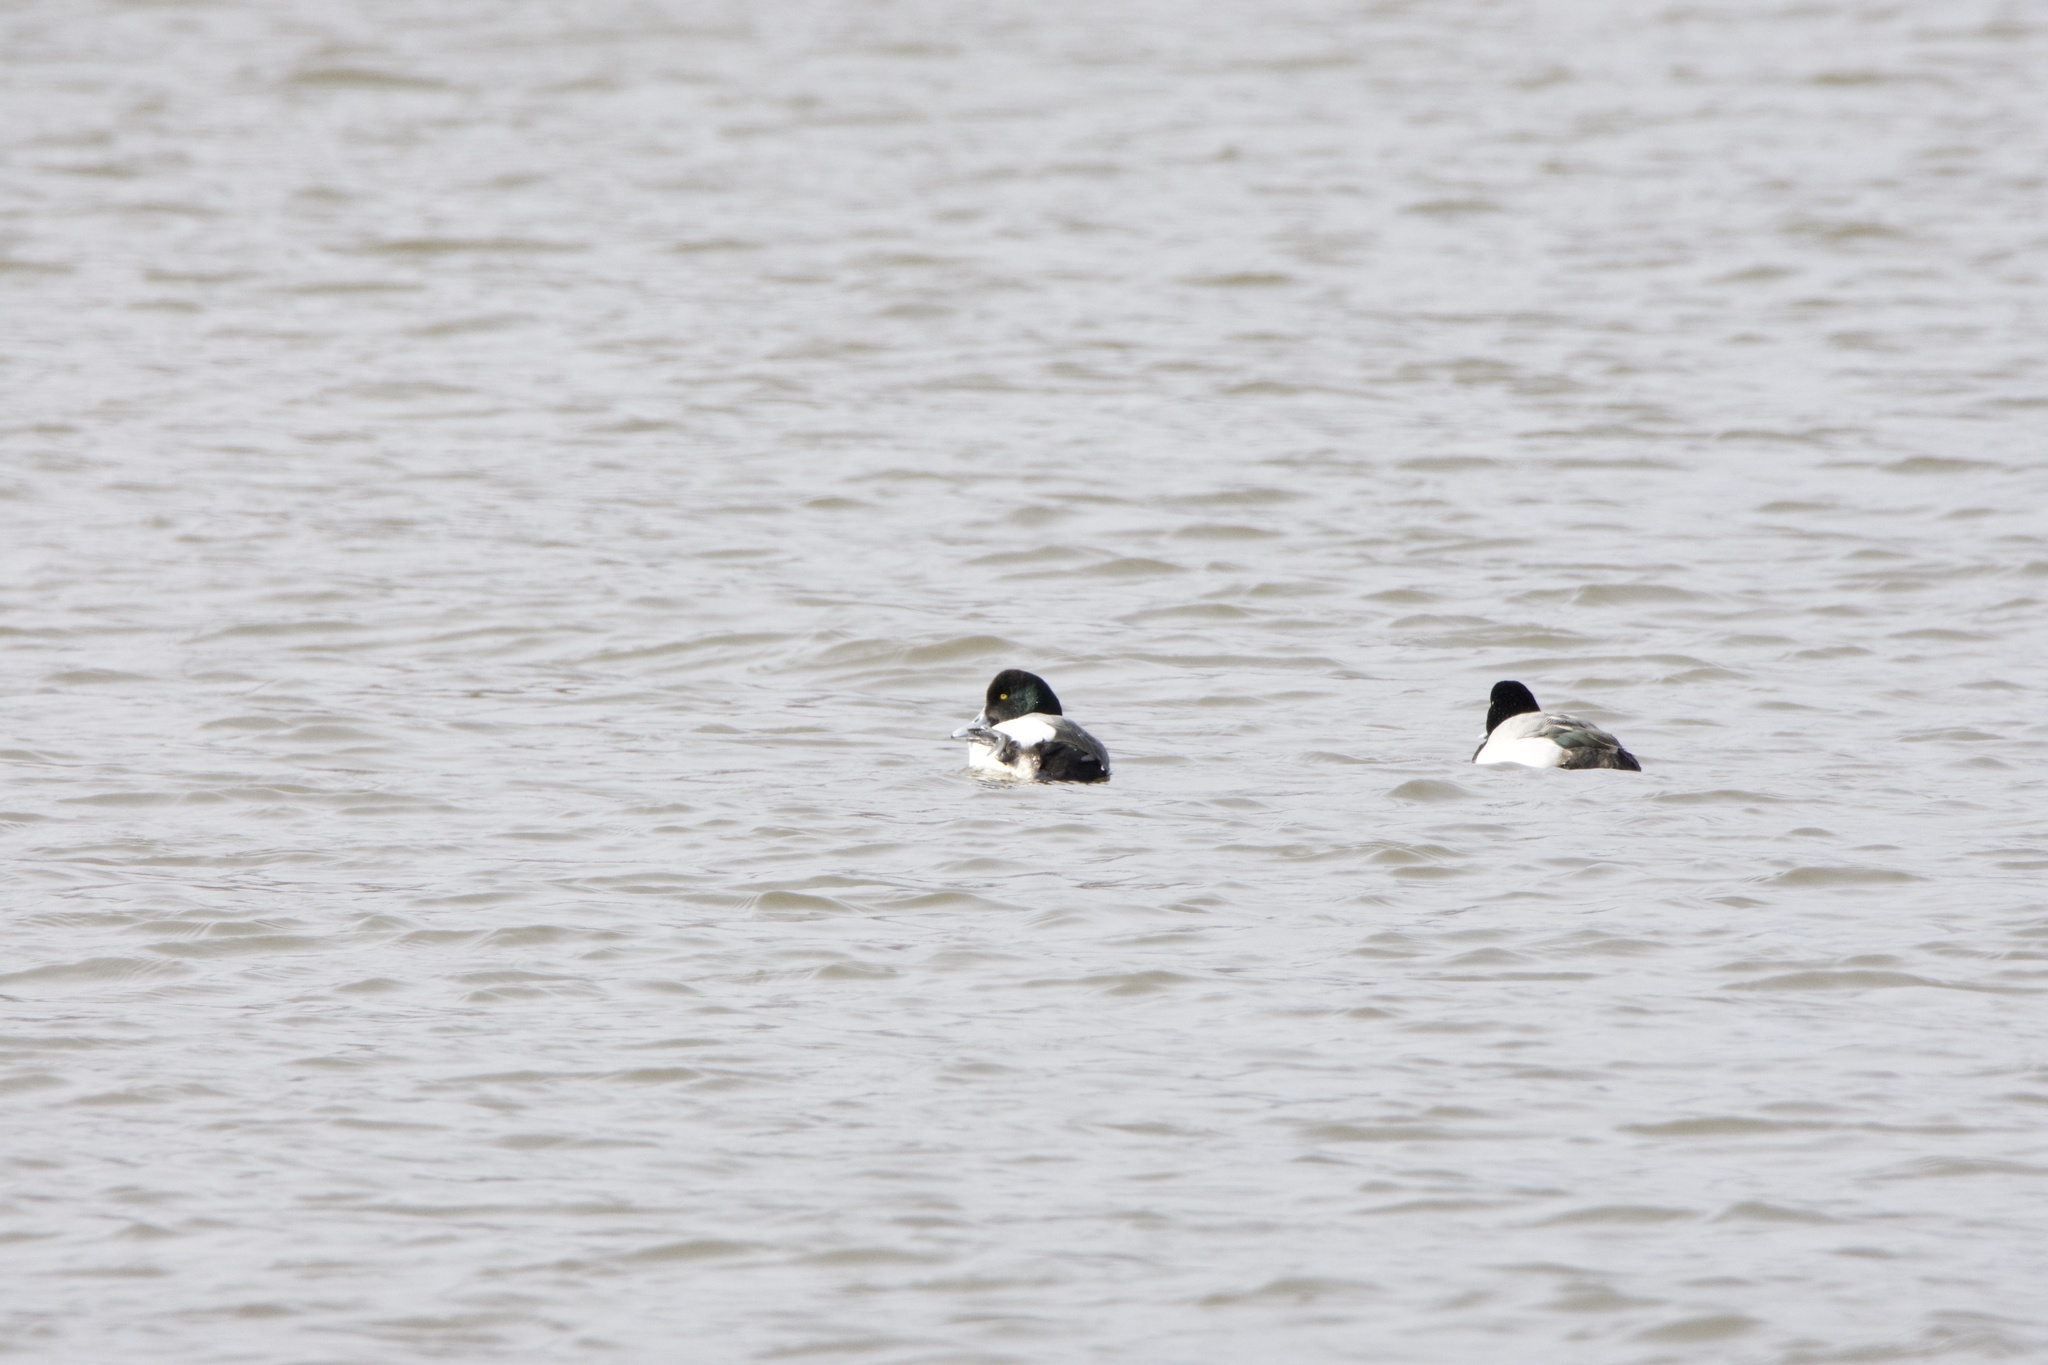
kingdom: Animalia
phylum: Chordata
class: Aves
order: Anseriformes
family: Anatidae
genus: Aythya
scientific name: Aythya marila
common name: Greater scaup
